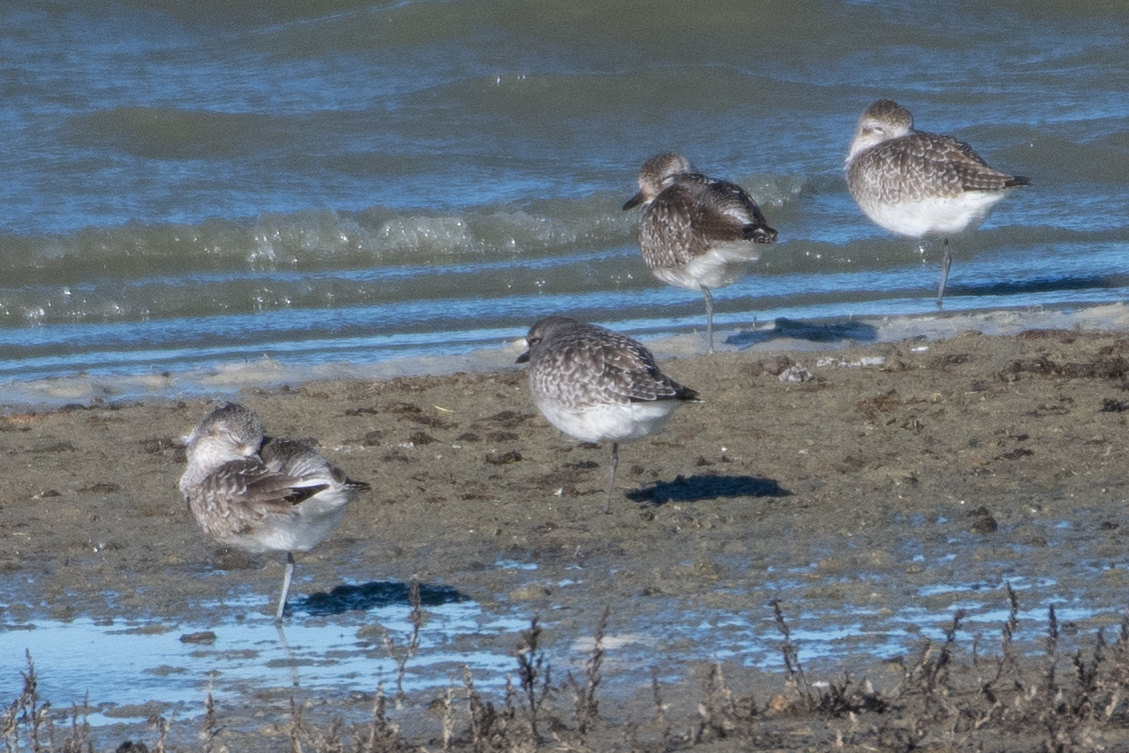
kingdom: Animalia
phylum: Chordata
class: Aves
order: Charadriiformes
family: Charadriidae
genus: Pluvialis
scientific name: Pluvialis squatarola
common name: Grey plover
